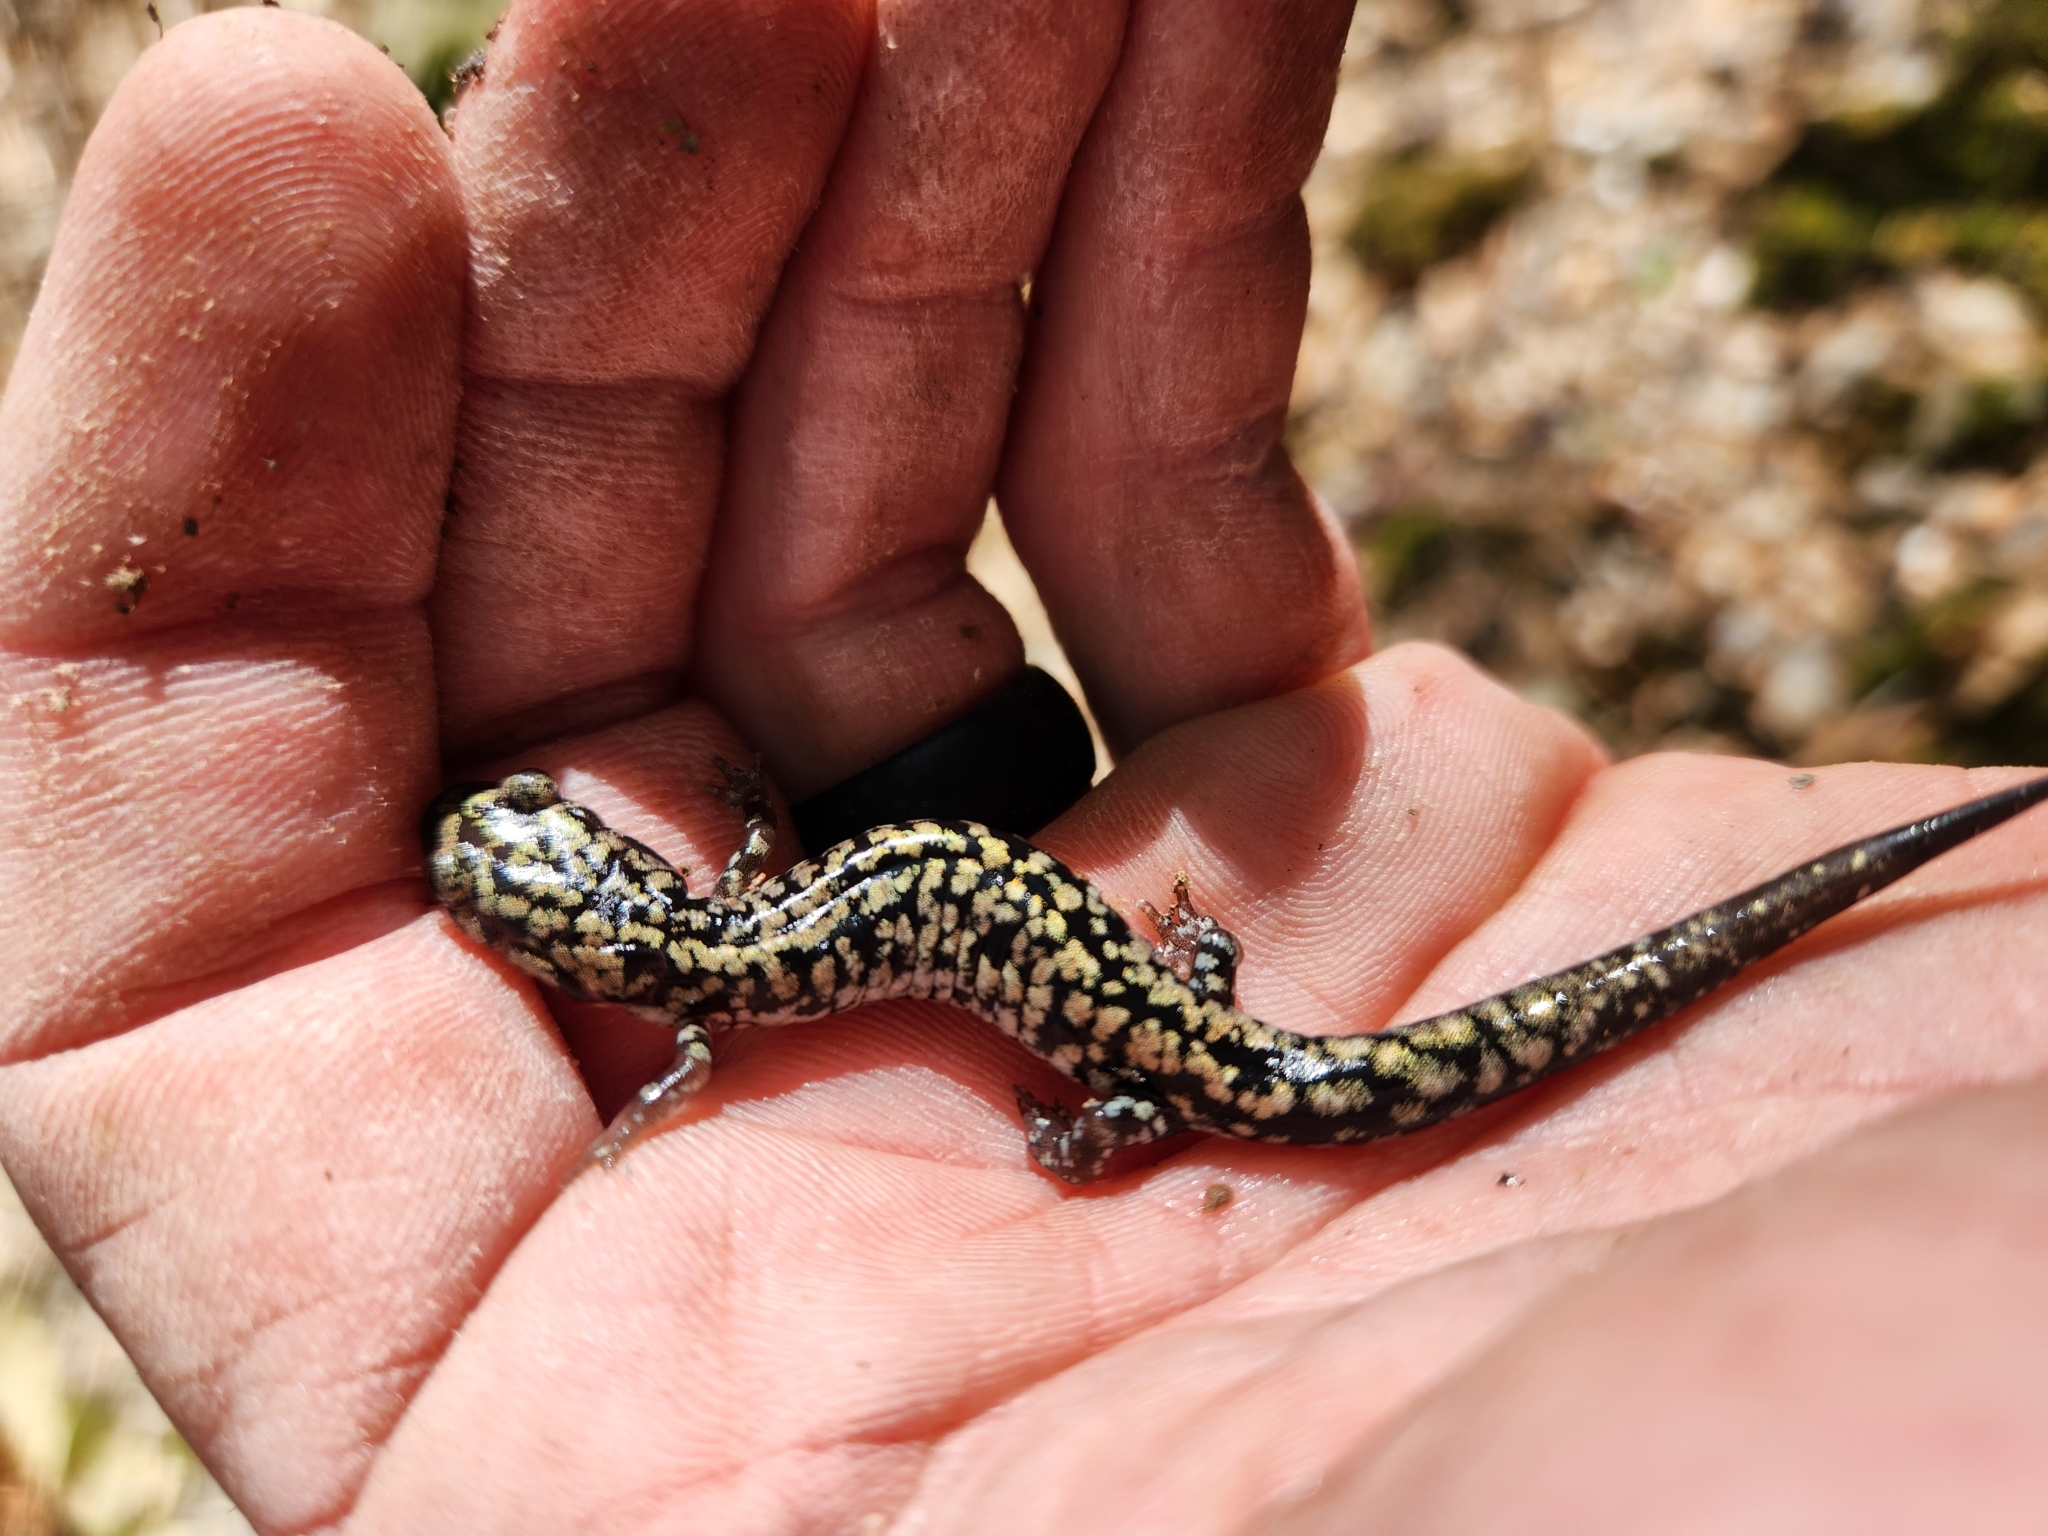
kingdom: Animalia
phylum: Chordata
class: Amphibia
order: Caudata
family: Plethodontidae
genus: Plethodon
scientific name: Plethodon caddoensis
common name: Caddo mountain salamander
